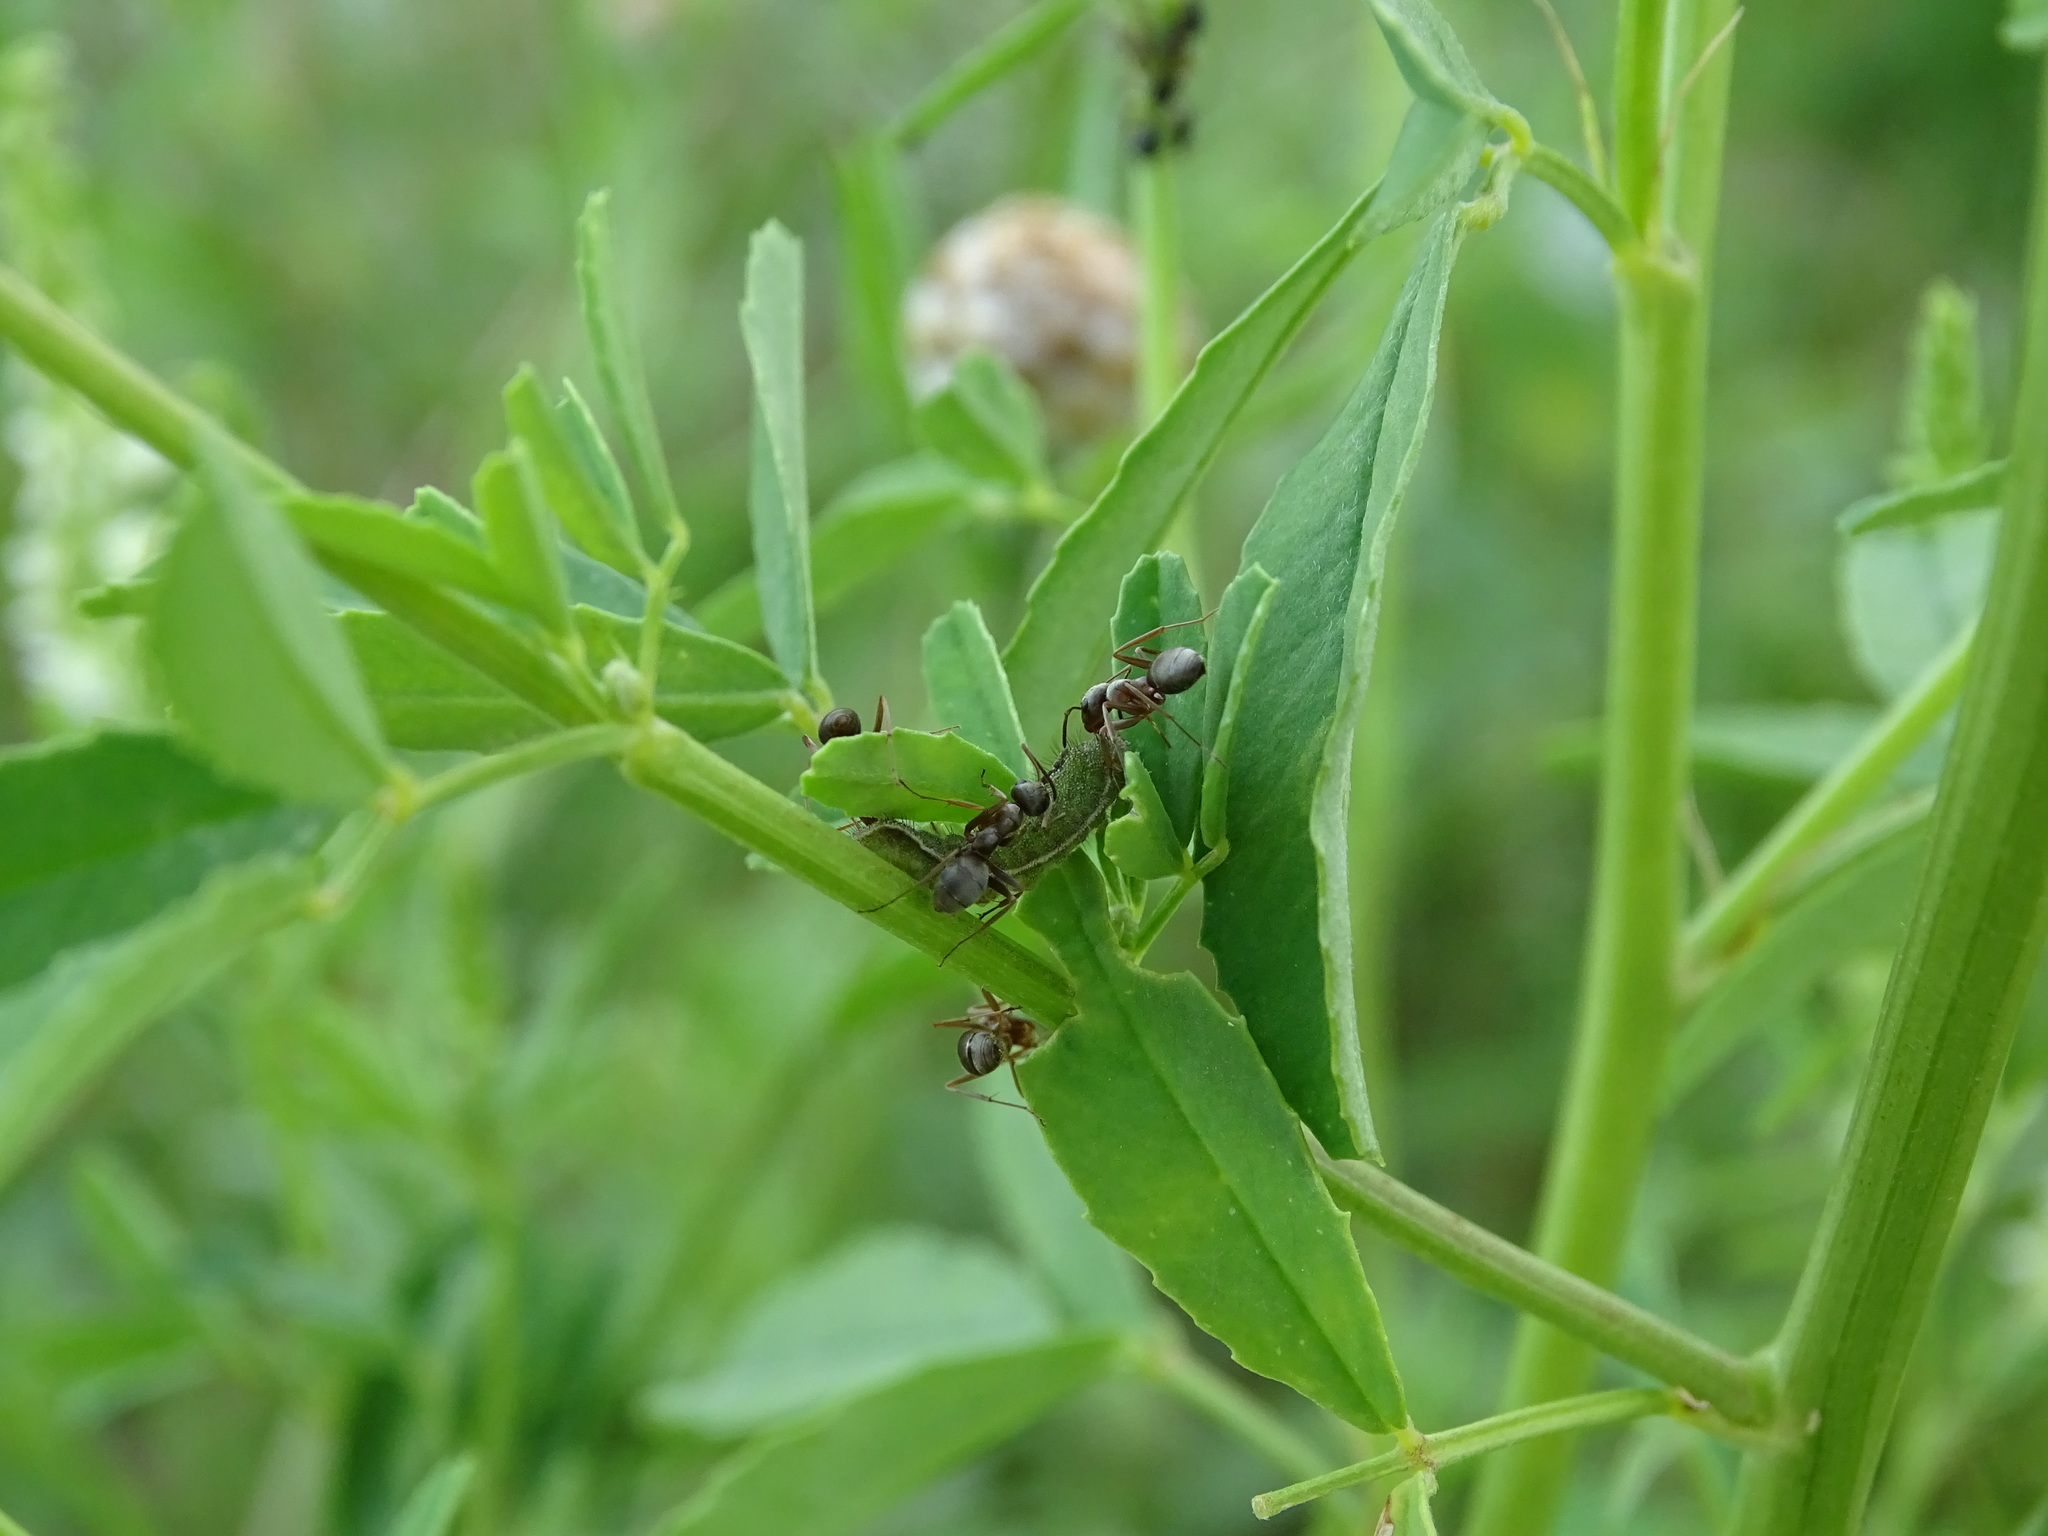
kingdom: Animalia
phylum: Arthropoda
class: Insecta
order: Lepidoptera
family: Lycaenidae
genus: Lycaeides
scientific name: Lycaeides idas
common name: Northern blue
